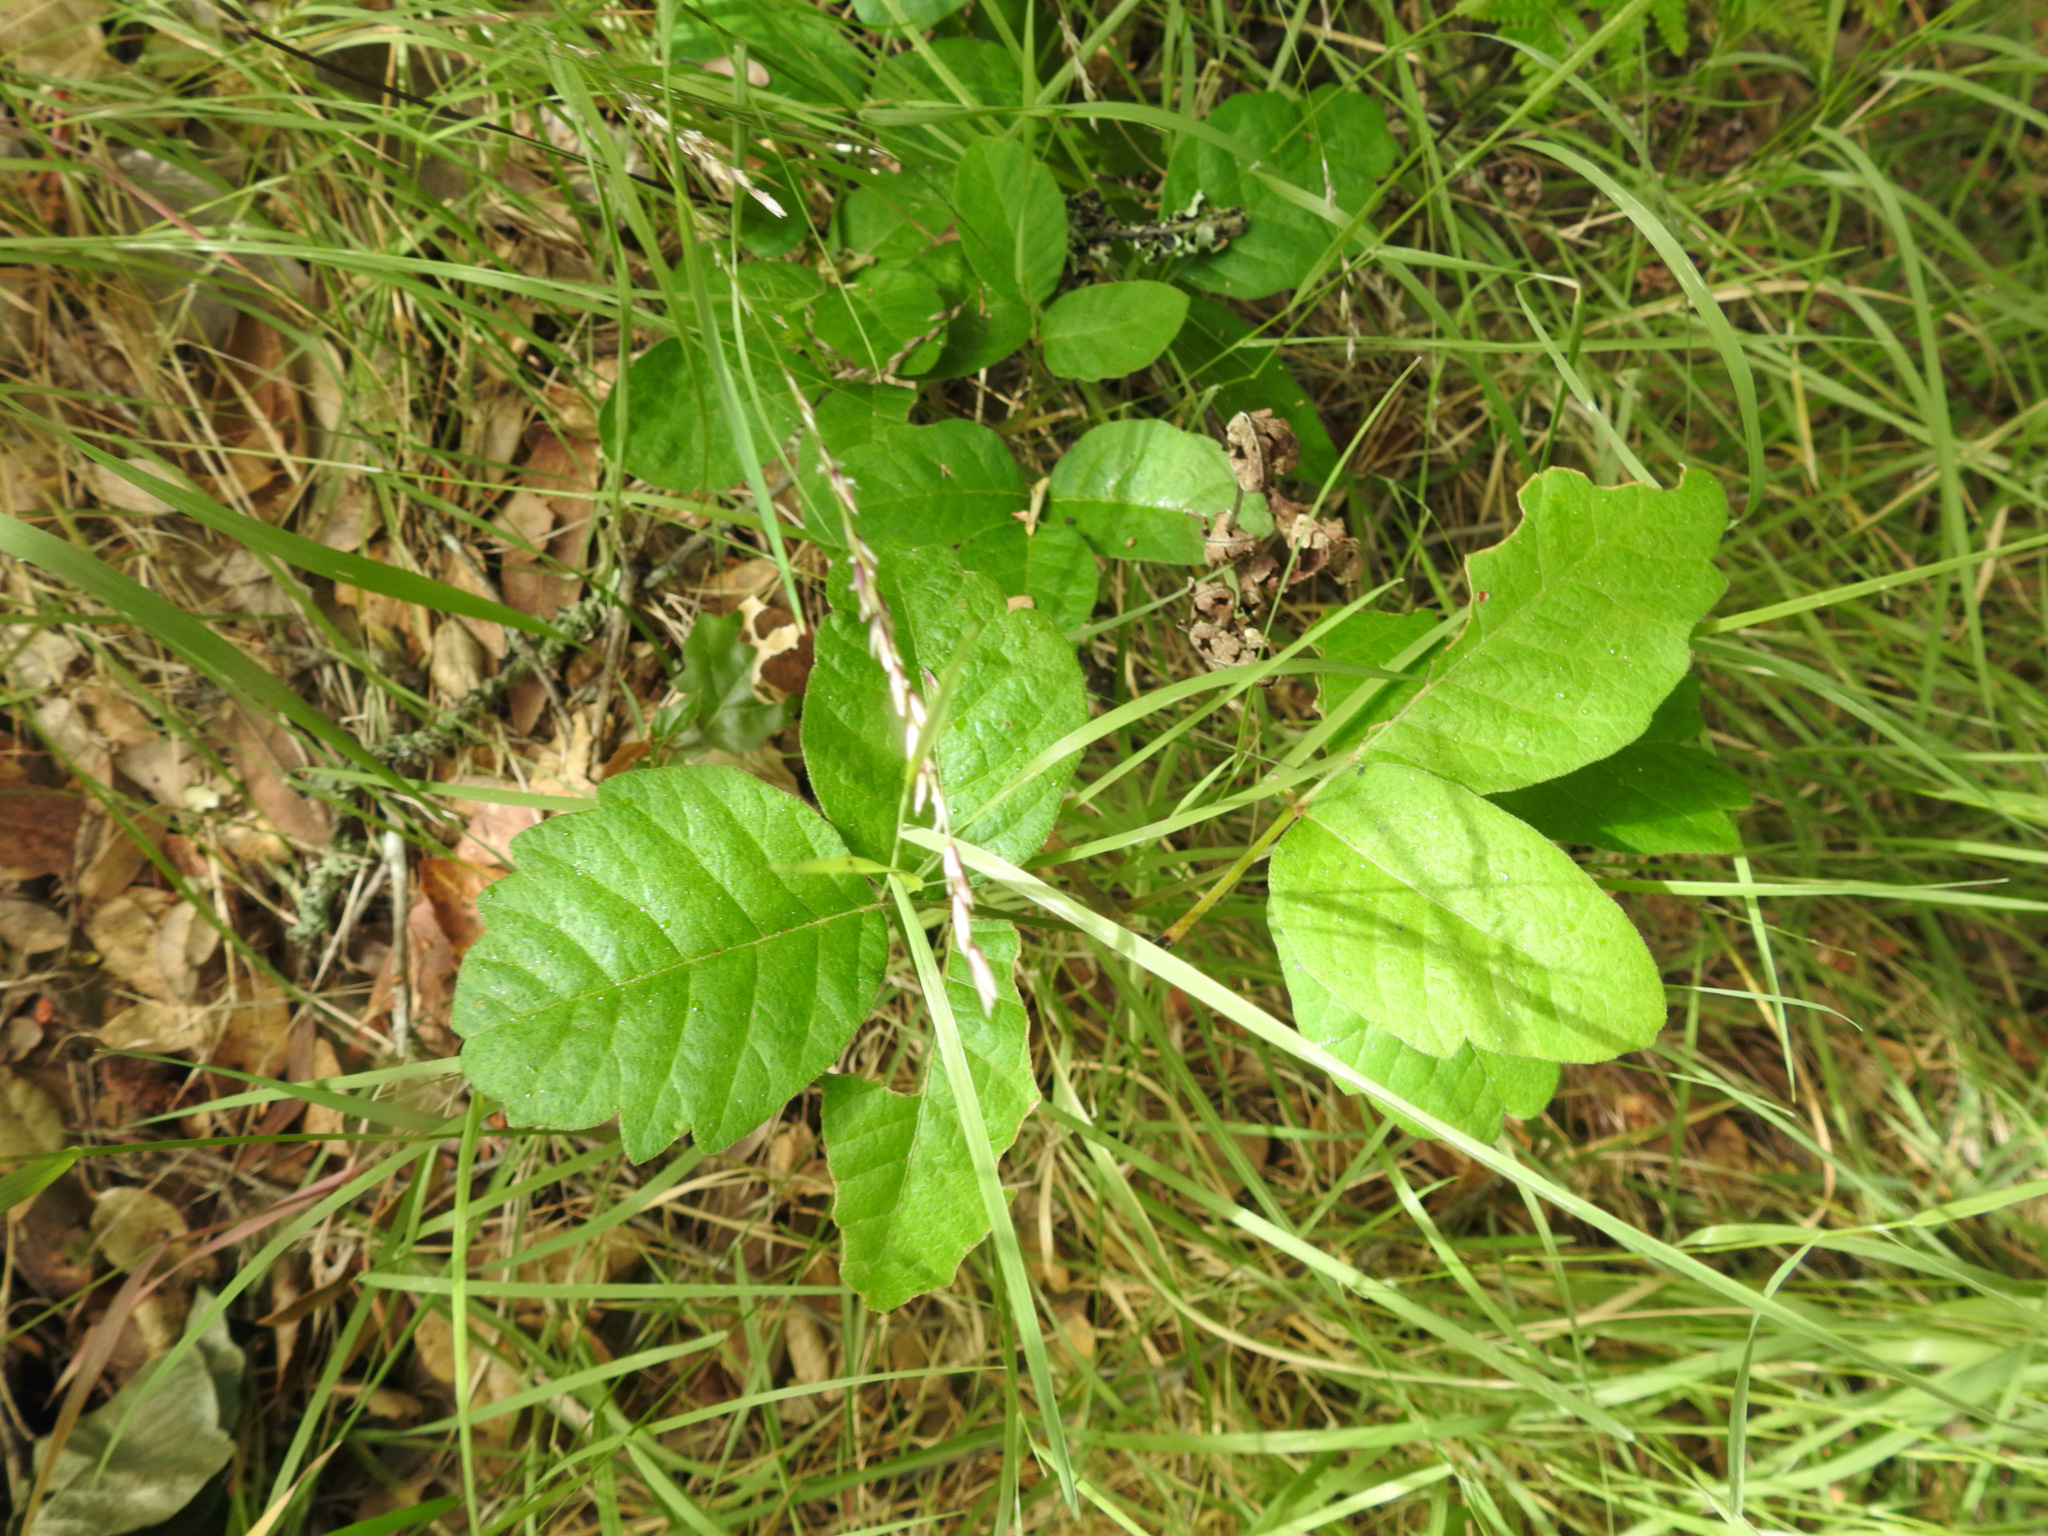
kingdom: Plantae
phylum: Tracheophyta
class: Magnoliopsida
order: Sapindales
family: Anacardiaceae
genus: Toxicodendron
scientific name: Toxicodendron diversilobum
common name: Pacific poison-oak
